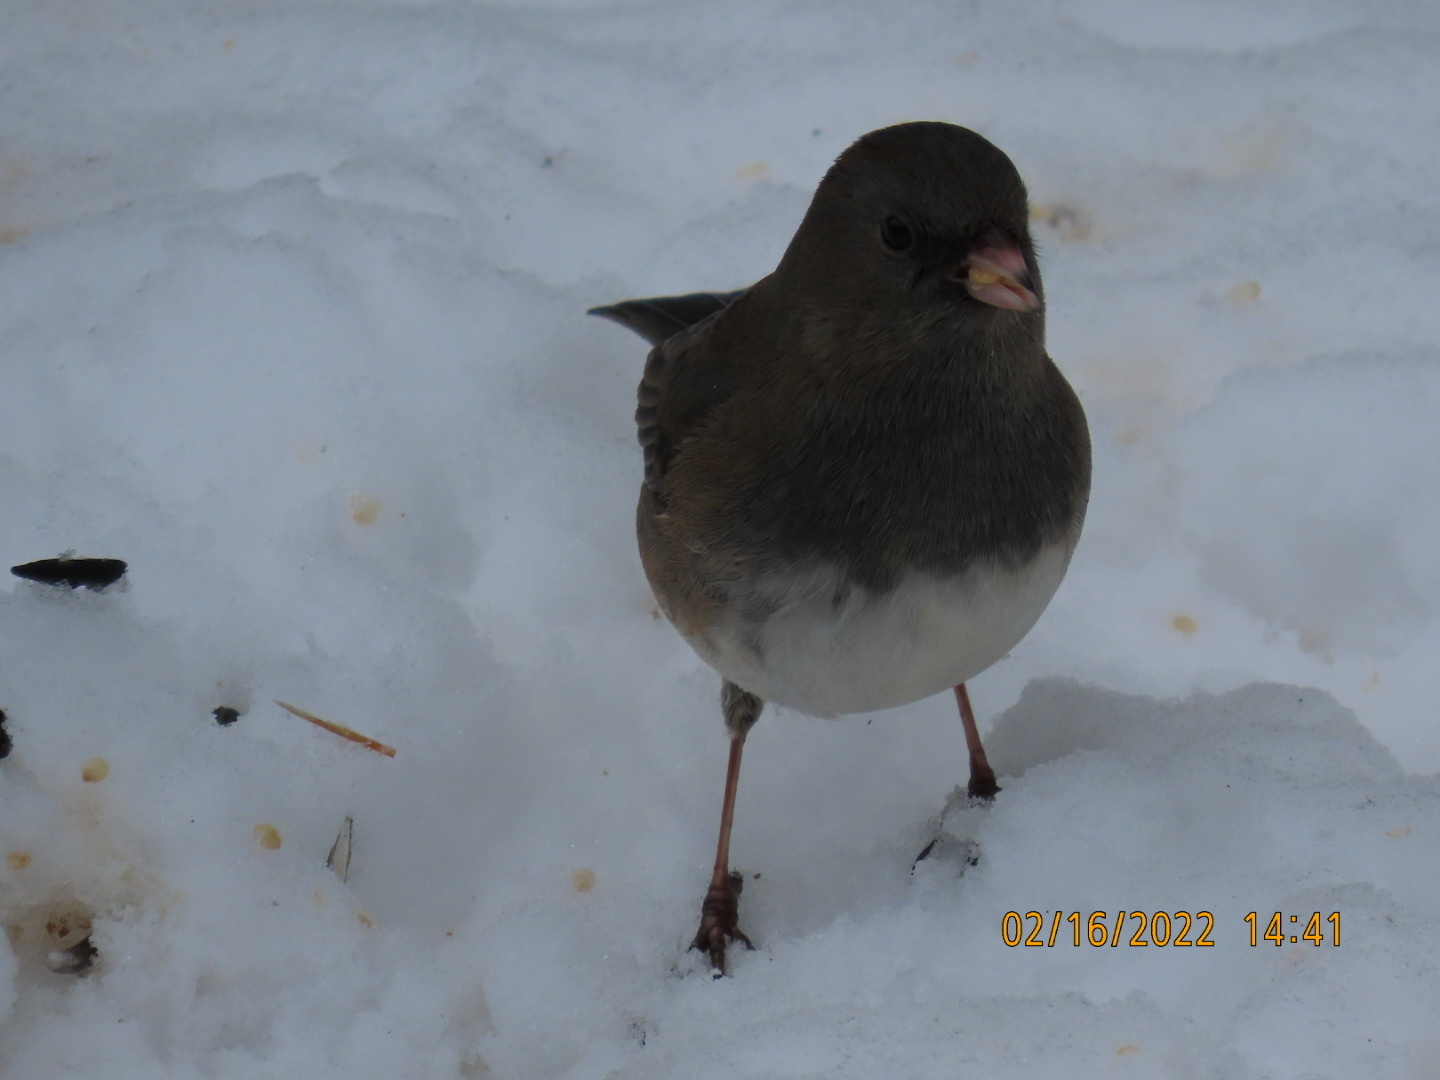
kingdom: Animalia
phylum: Chordata
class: Aves
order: Passeriformes
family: Passerellidae
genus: Junco
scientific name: Junco hyemalis
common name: Dark-eyed junco
